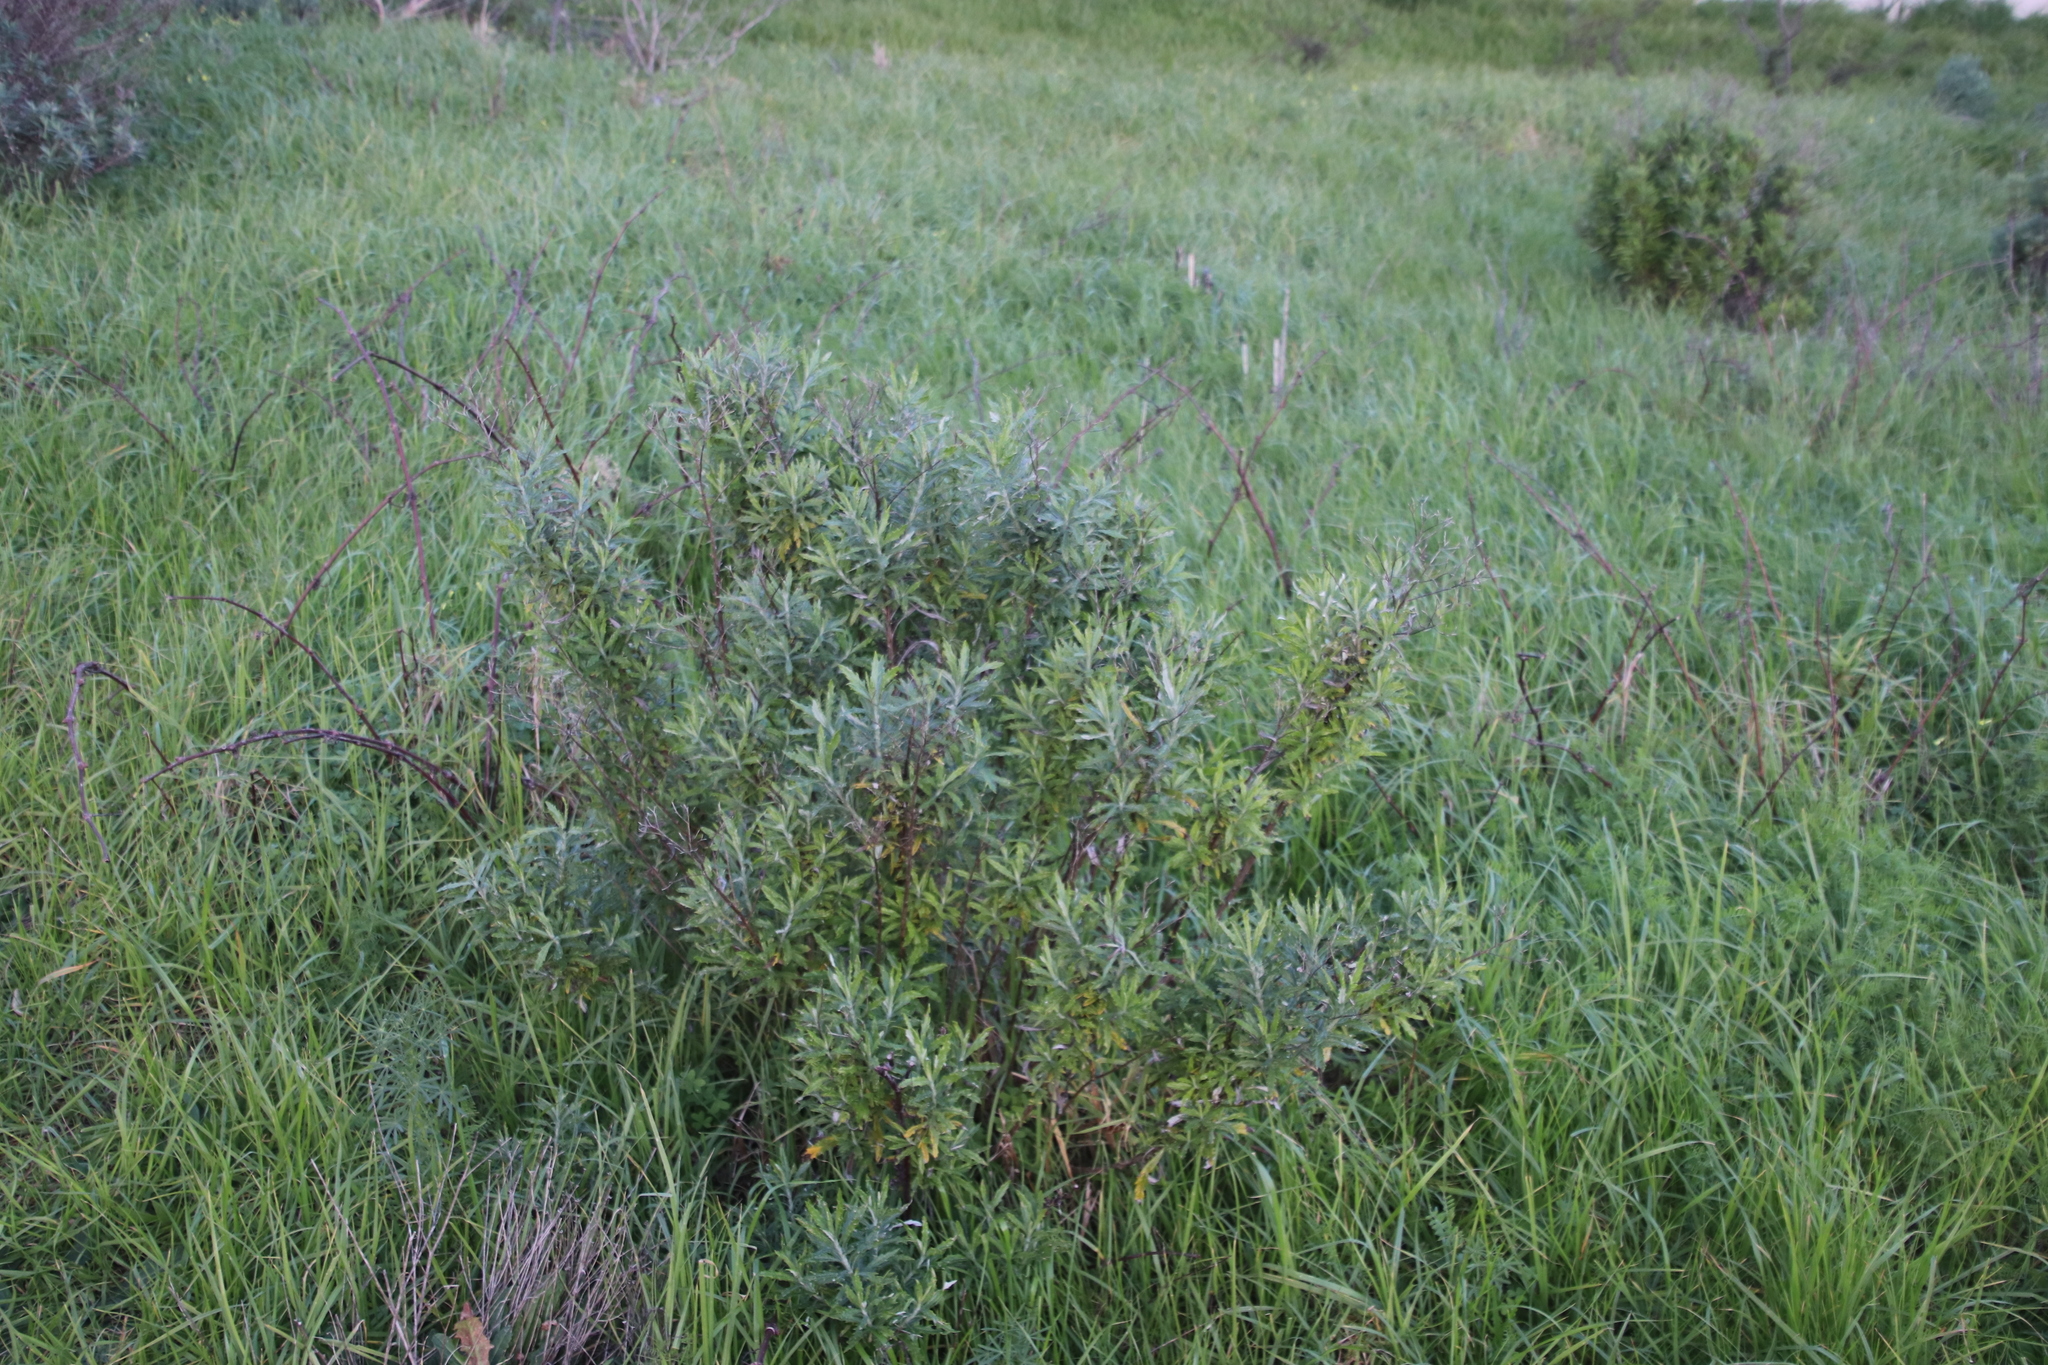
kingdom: Plantae
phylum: Tracheophyta
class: Magnoliopsida
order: Asterales
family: Asteraceae
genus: Senecio
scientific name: Senecio pterophorus
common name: Shoddy ragwort
